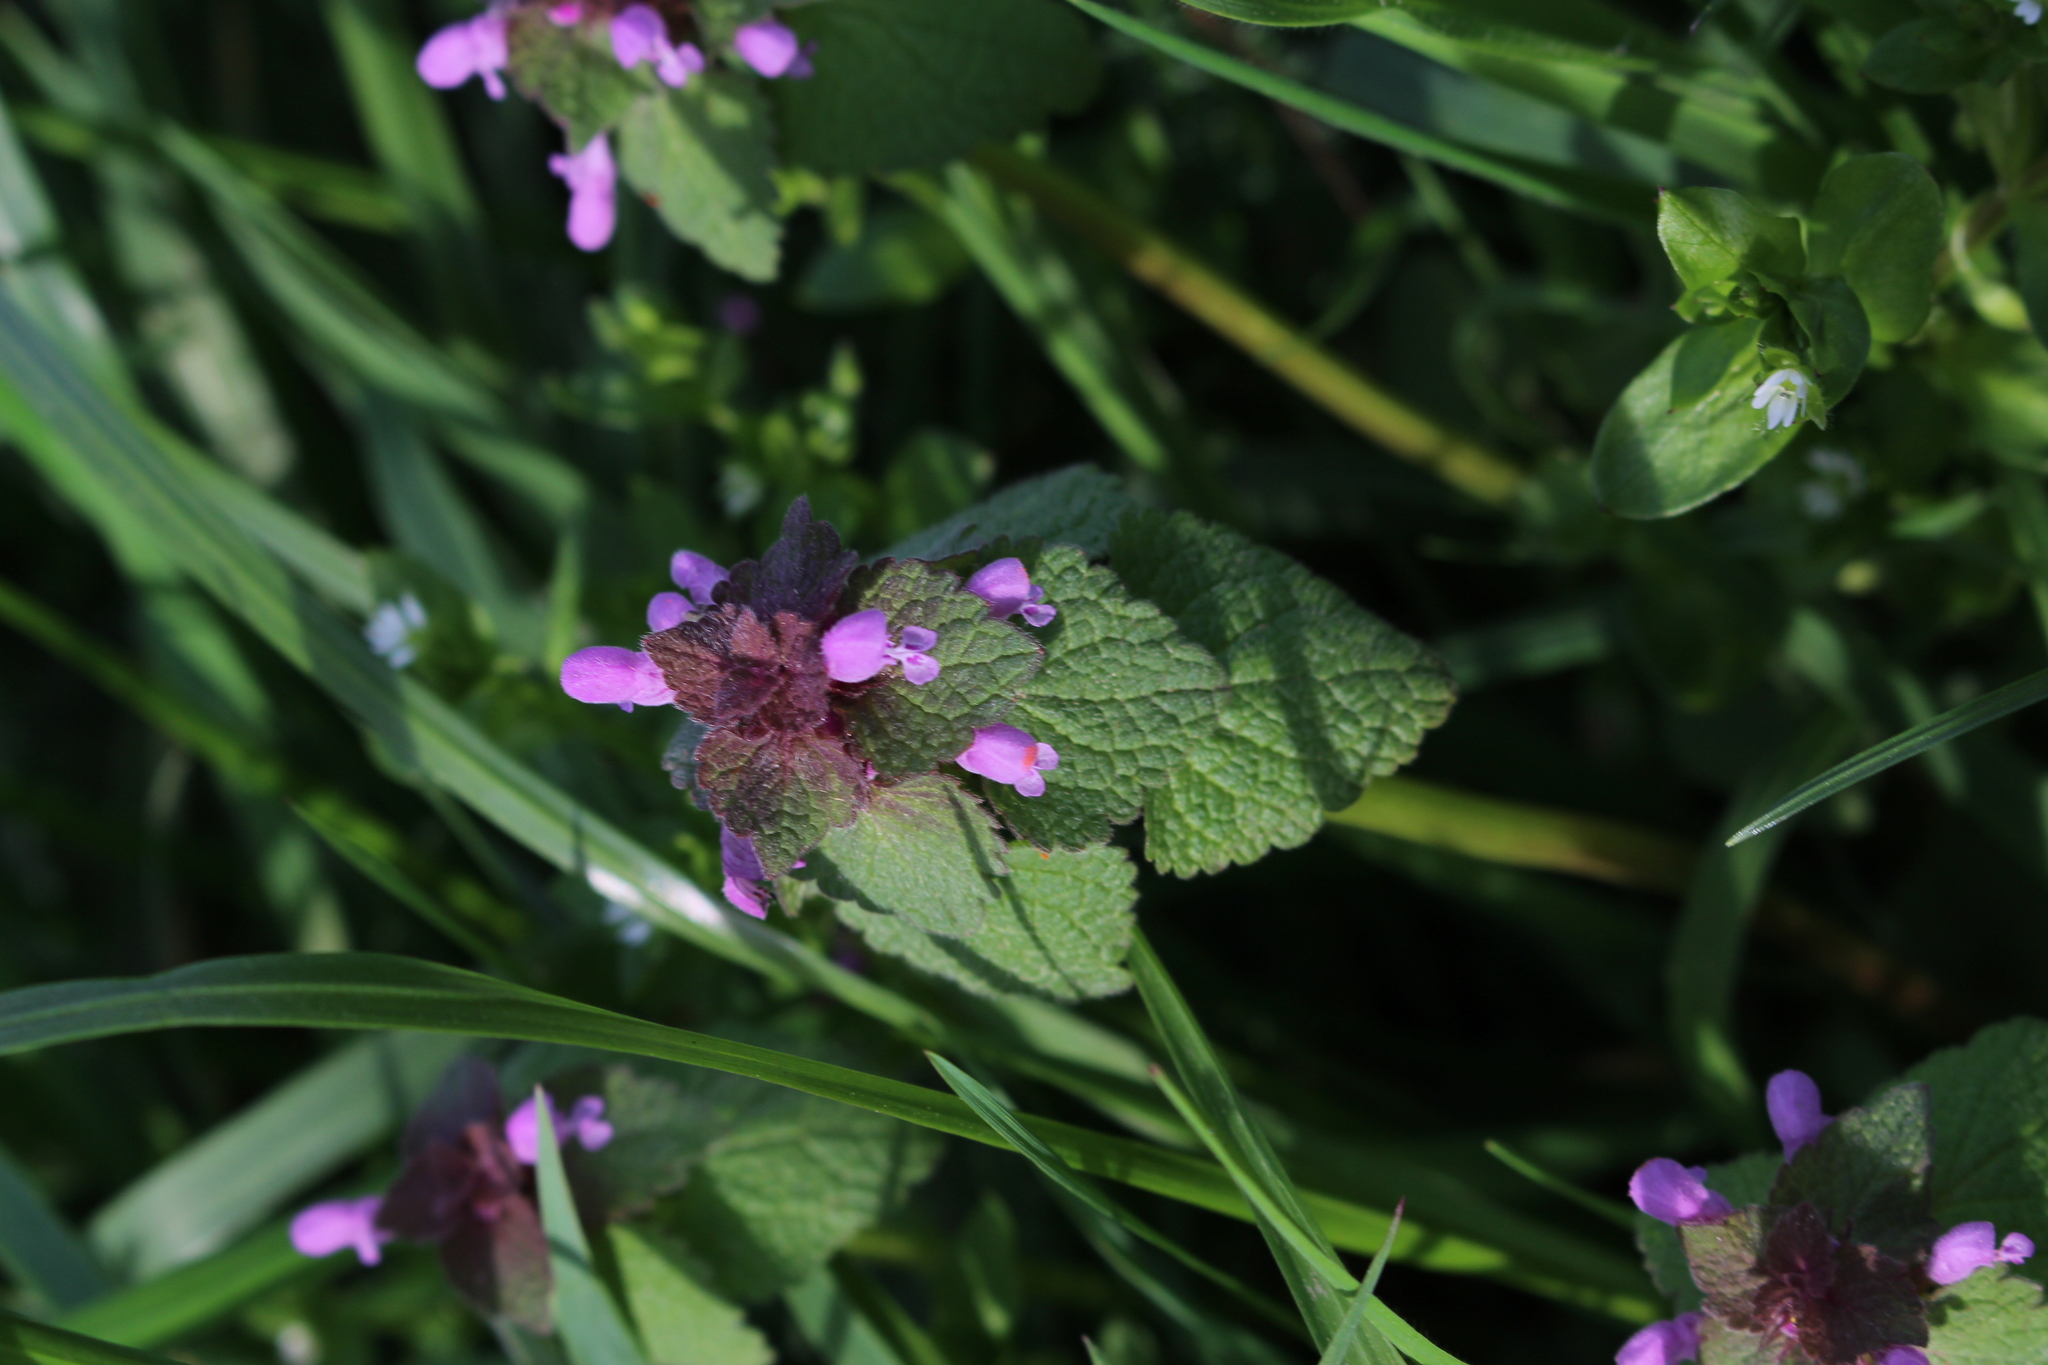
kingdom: Plantae
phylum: Tracheophyta
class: Magnoliopsida
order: Lamiales
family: Lamiaceae
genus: Lamium
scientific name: Lamium purpureum
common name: Red dead-nettle
